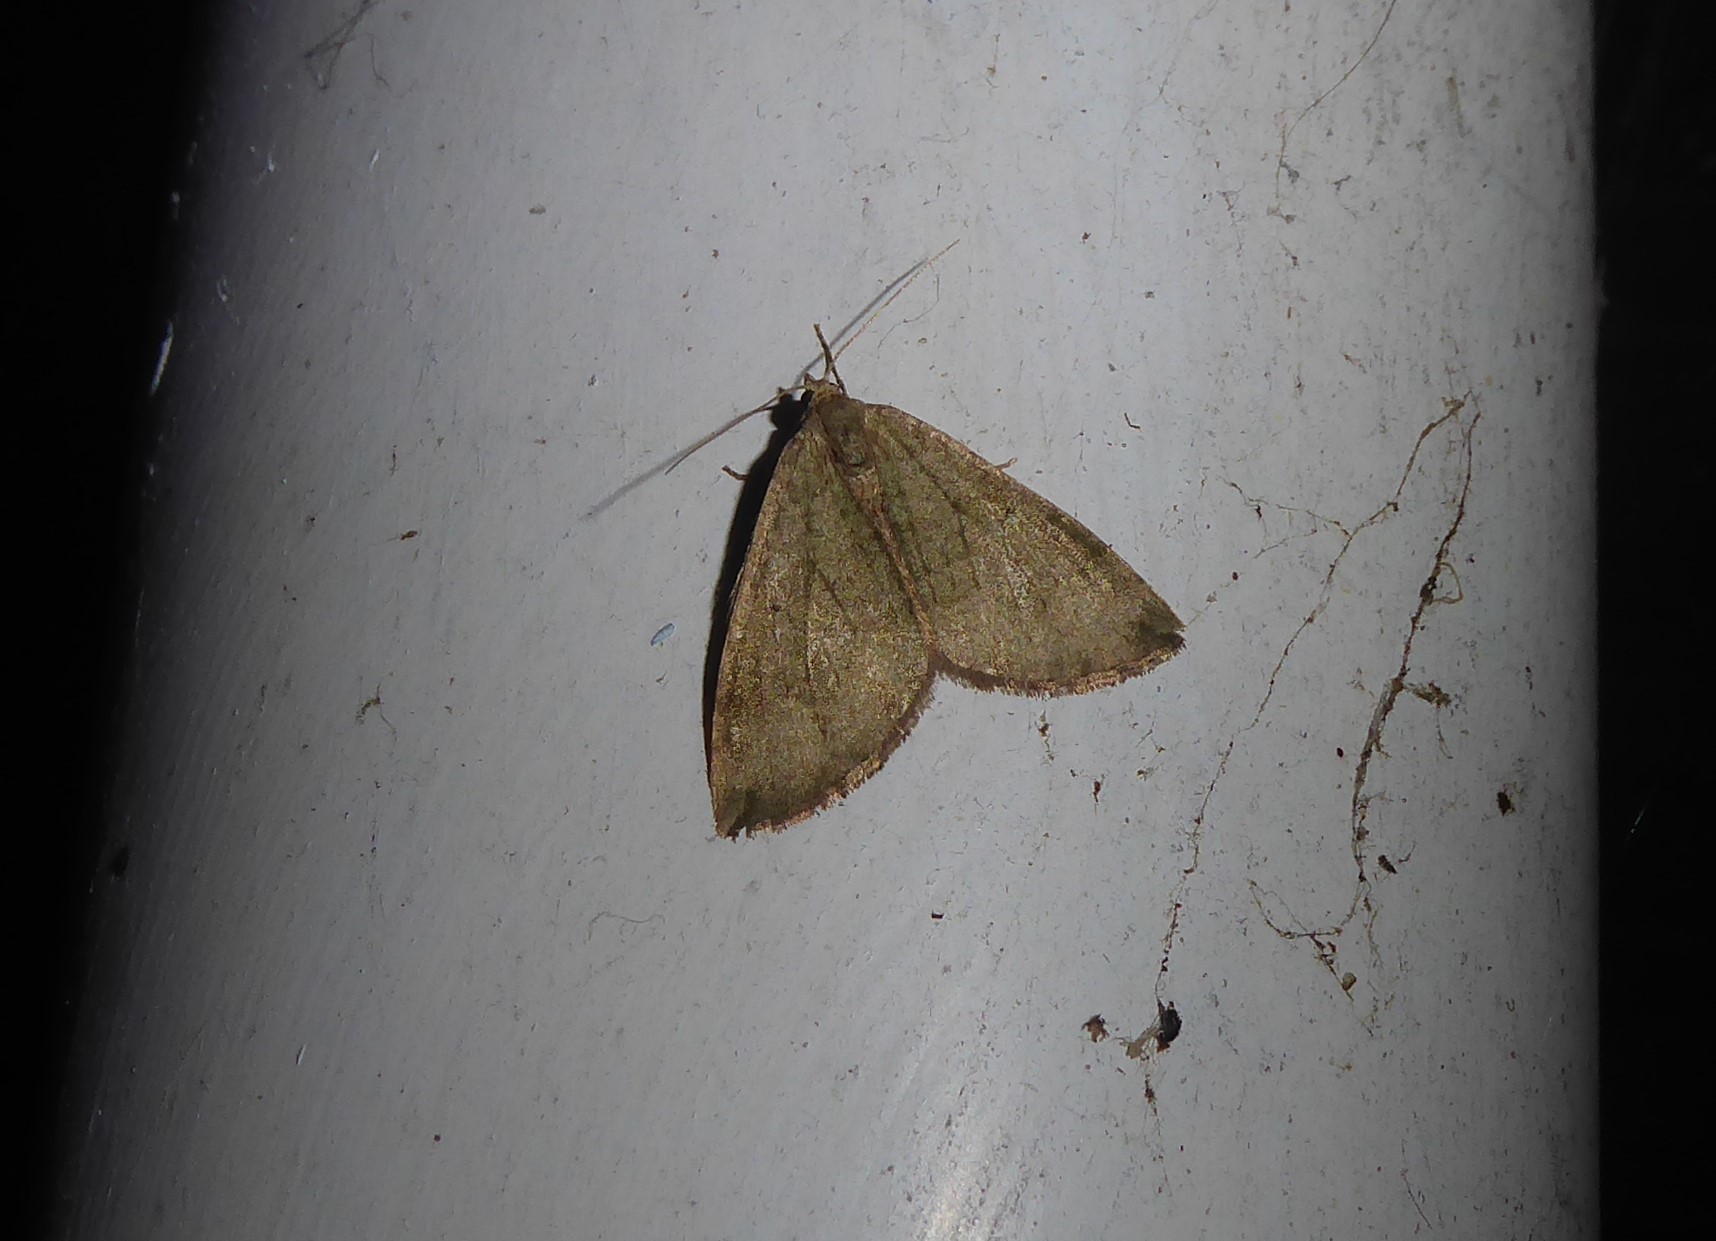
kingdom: Animalia
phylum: Arthropoda
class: Insecta
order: Lepidoptera
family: Geometridae
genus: Epyaxa
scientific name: Epyaxa rosearia
